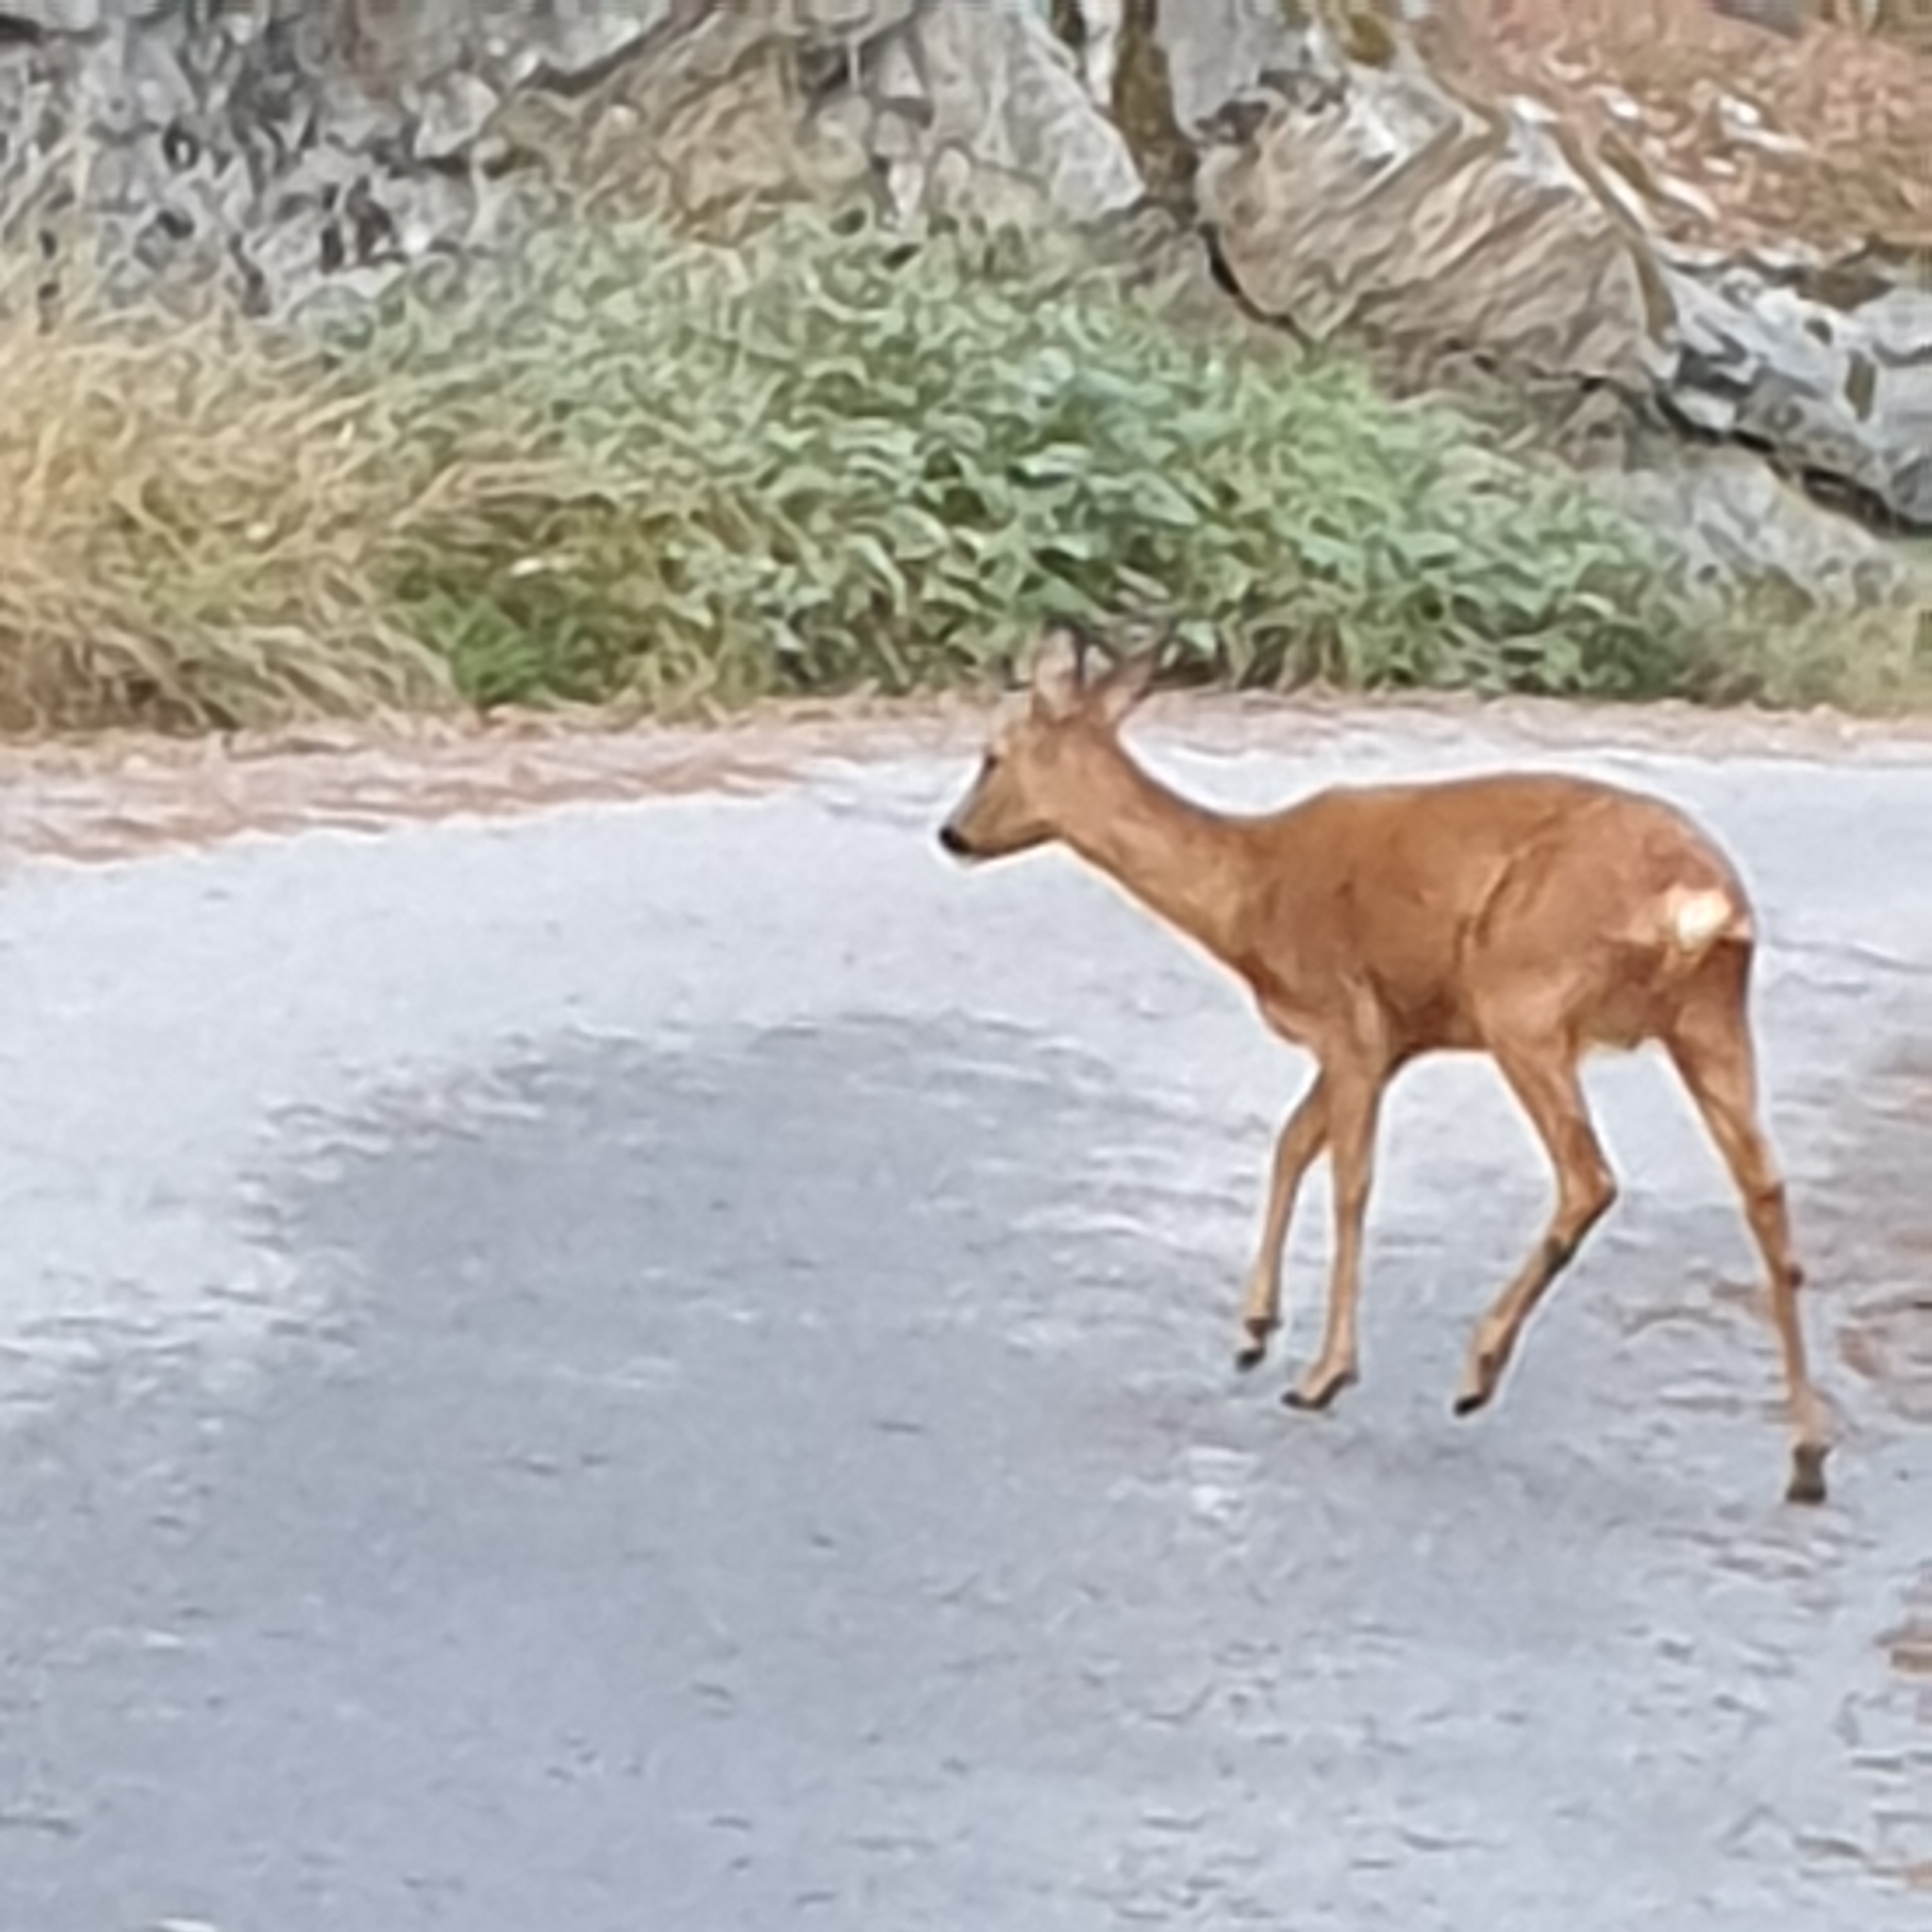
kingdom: Animalia
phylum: Chordata
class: Mammalia
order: Artiodactyla
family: Cervidae
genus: Capreolus
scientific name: Capreolus capreolus
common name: Western roe deer
